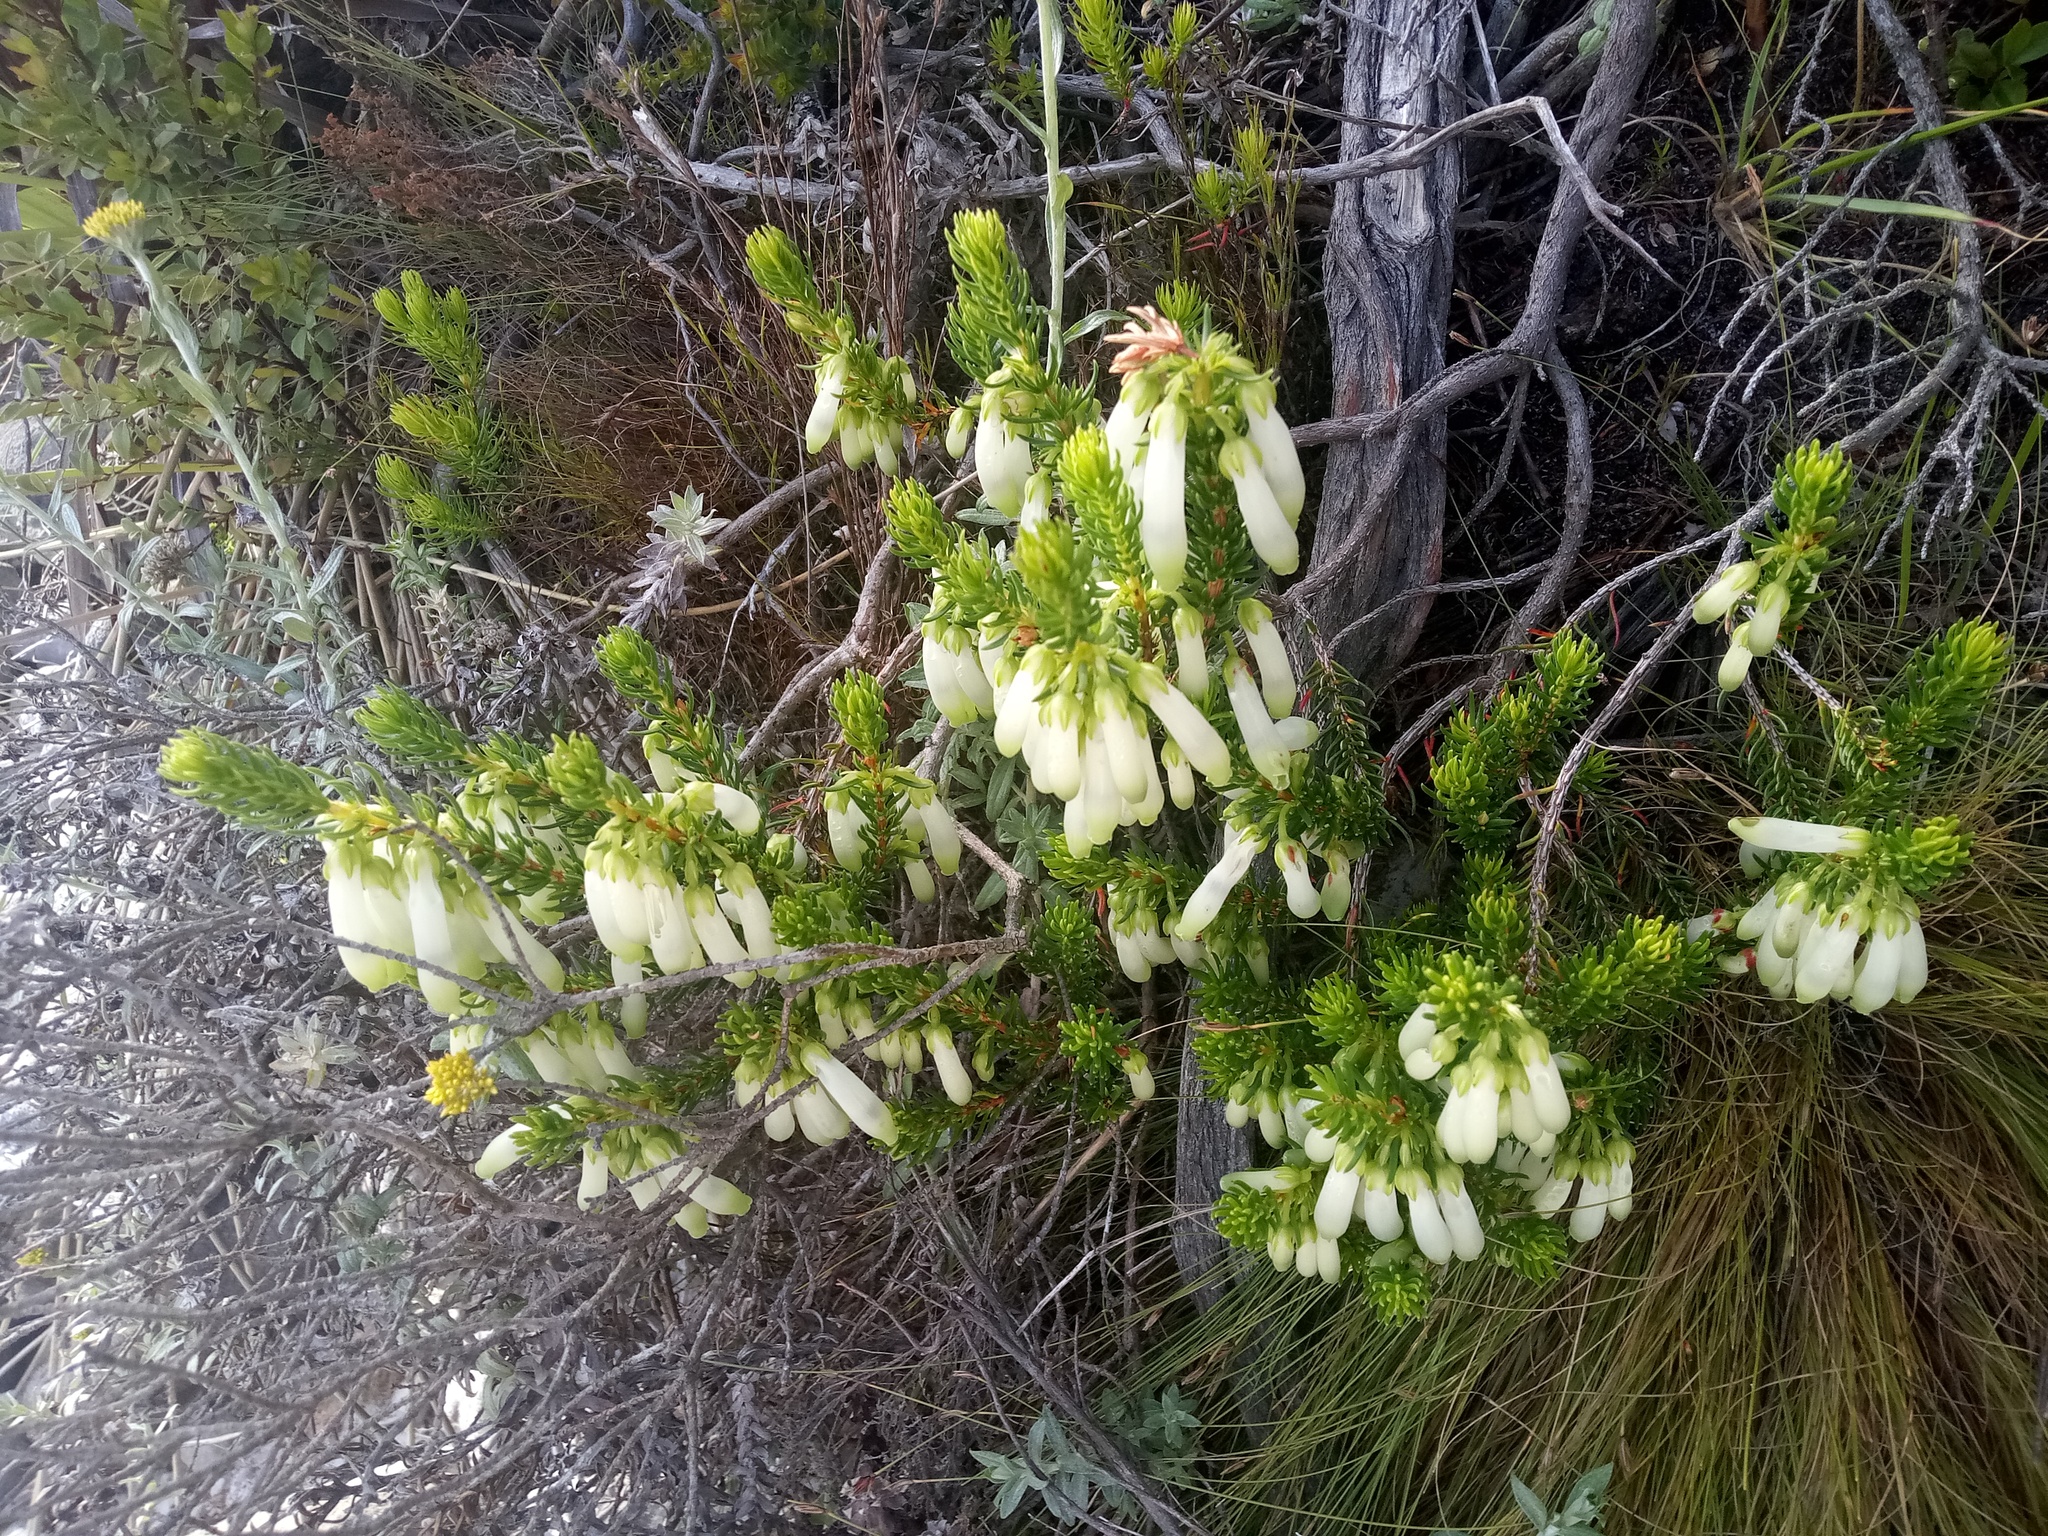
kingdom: Plantae
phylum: Tracheophyta
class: Magnoliopsida
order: Ericales
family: Ericaceae
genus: Erica
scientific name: Erica mammosa
